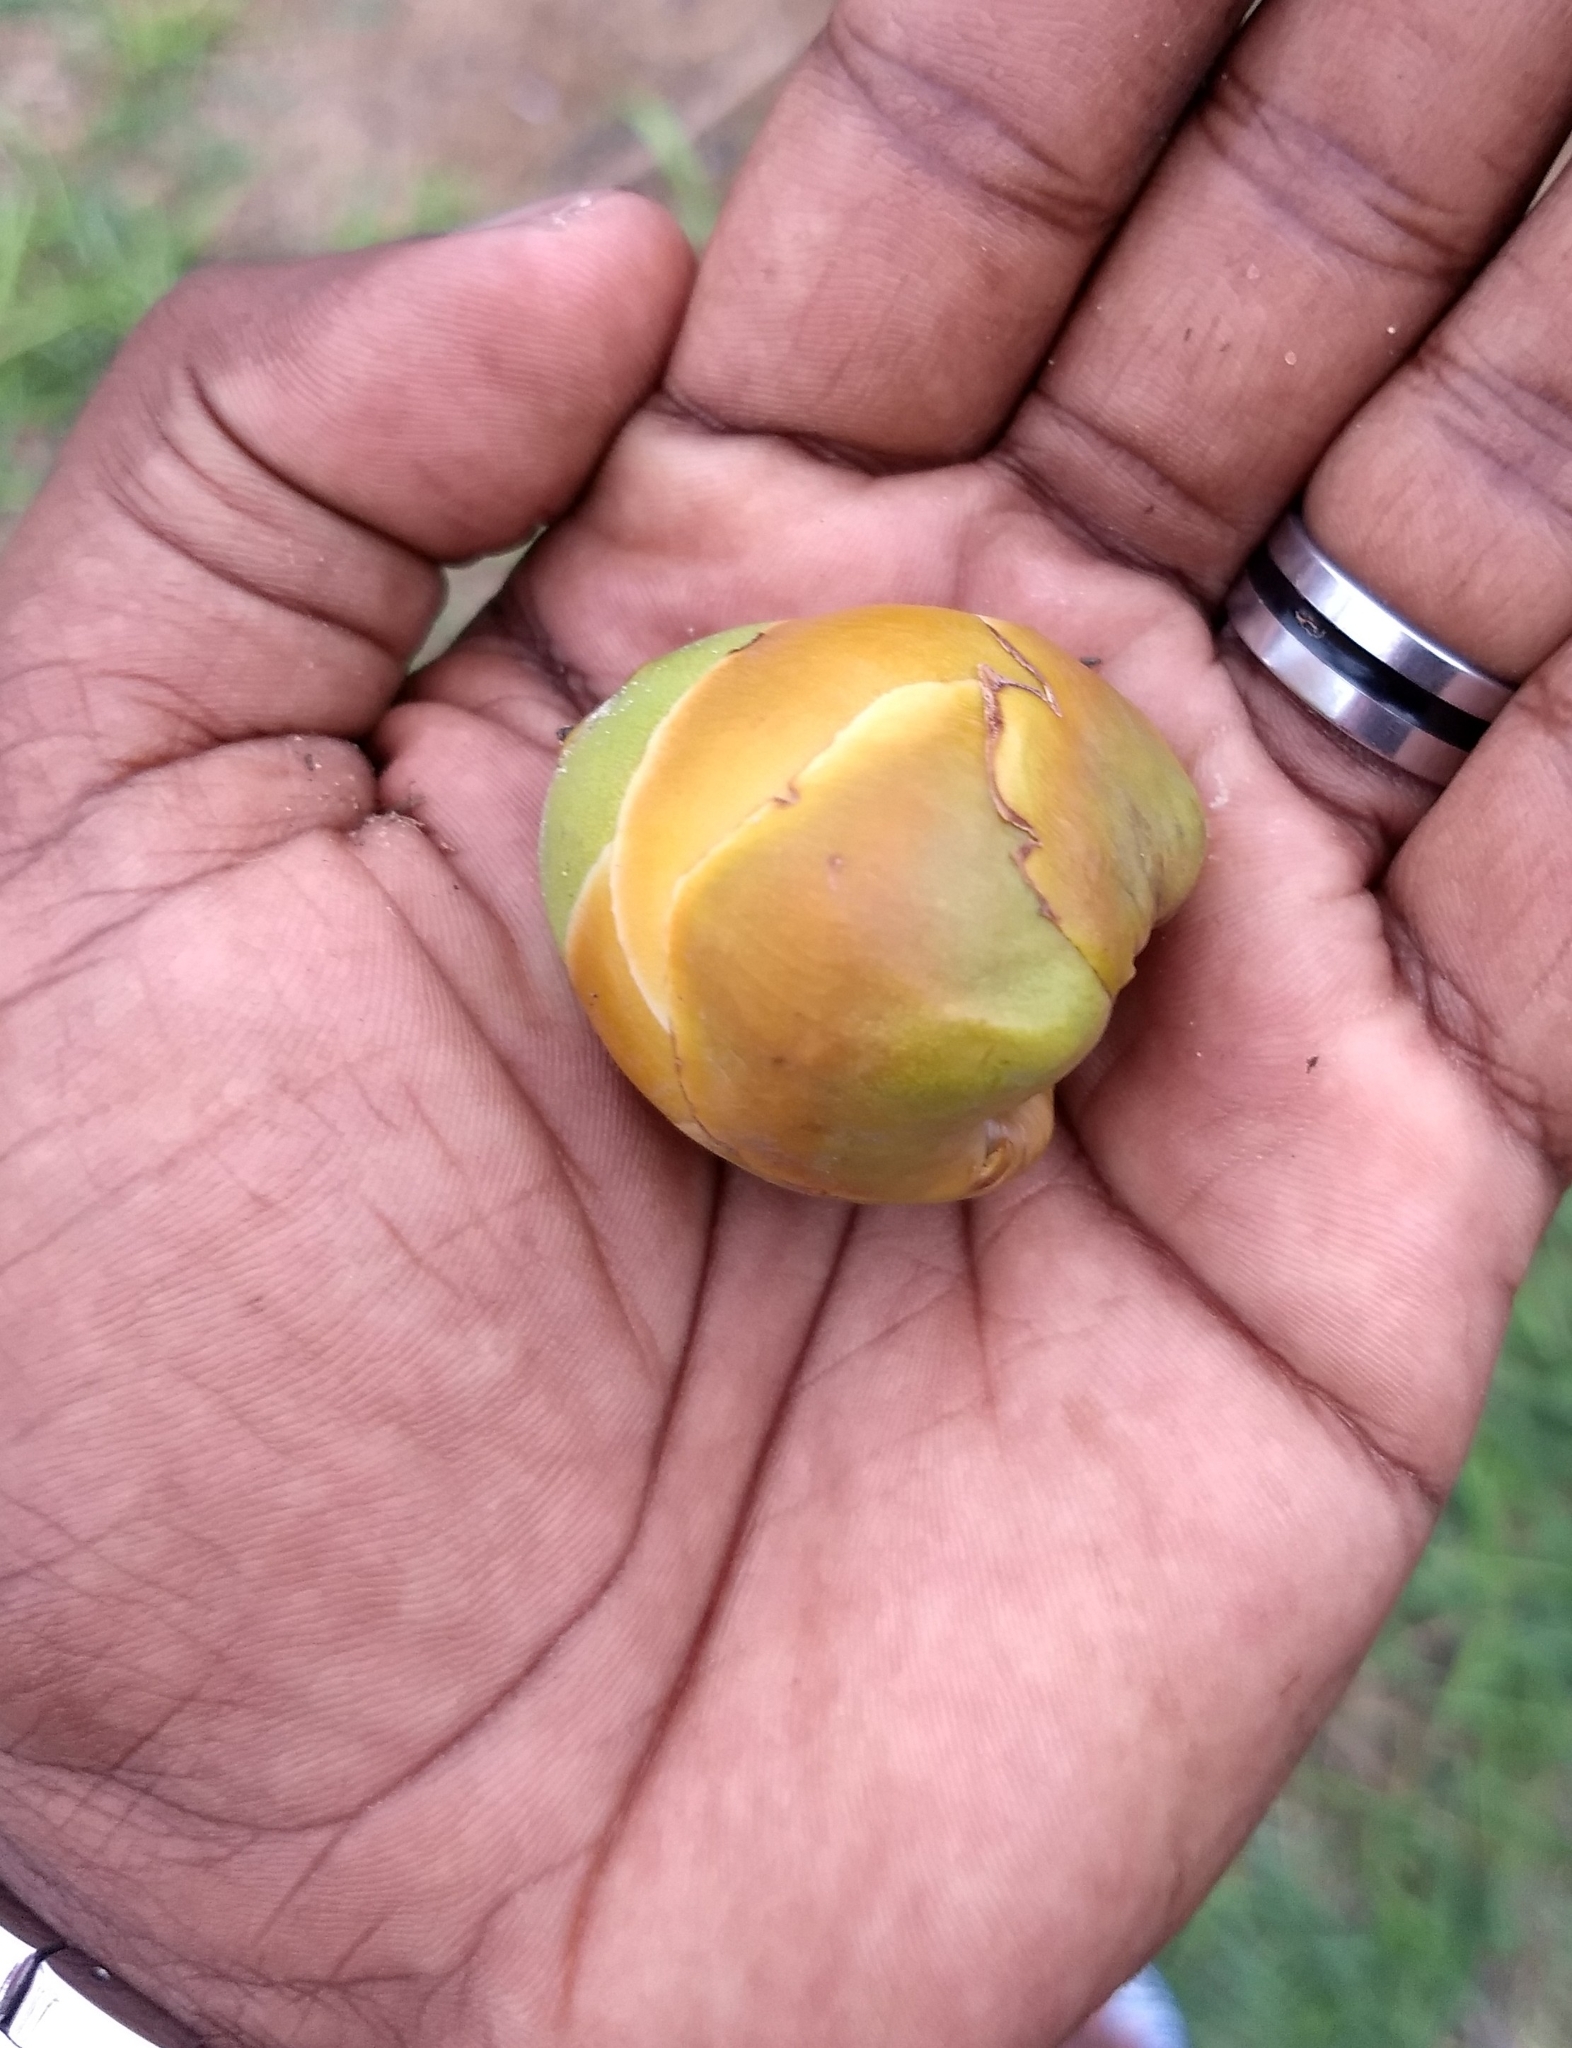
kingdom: Plantae
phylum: Tracheophyta
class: Liliopsida
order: Arecales
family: Arecaceae
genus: Cocos
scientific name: Cocos nucifera
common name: Coconut palm
